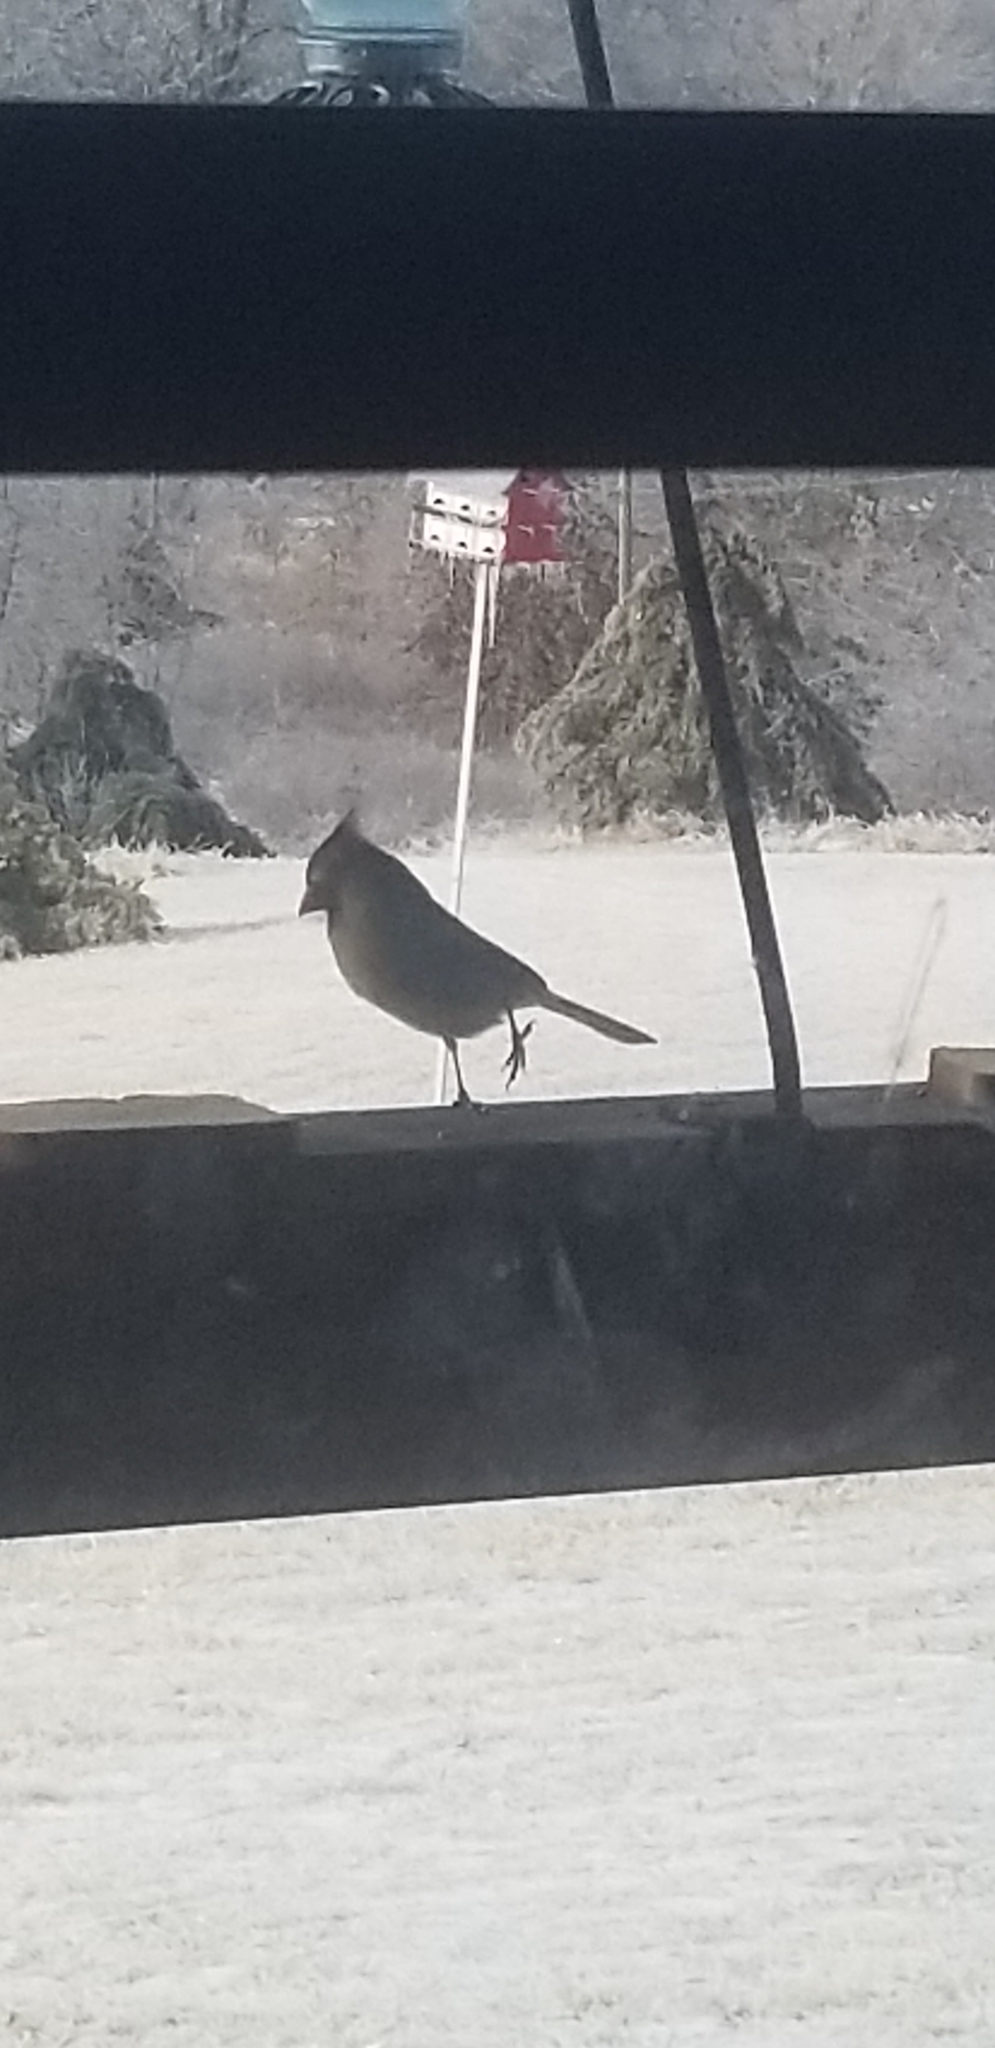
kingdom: Animalia
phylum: Chordata
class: Aves
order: Passeriformes
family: Cardinalidae
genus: Cardinalis
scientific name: Cardinalis cardinalis
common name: Northern cardinal
